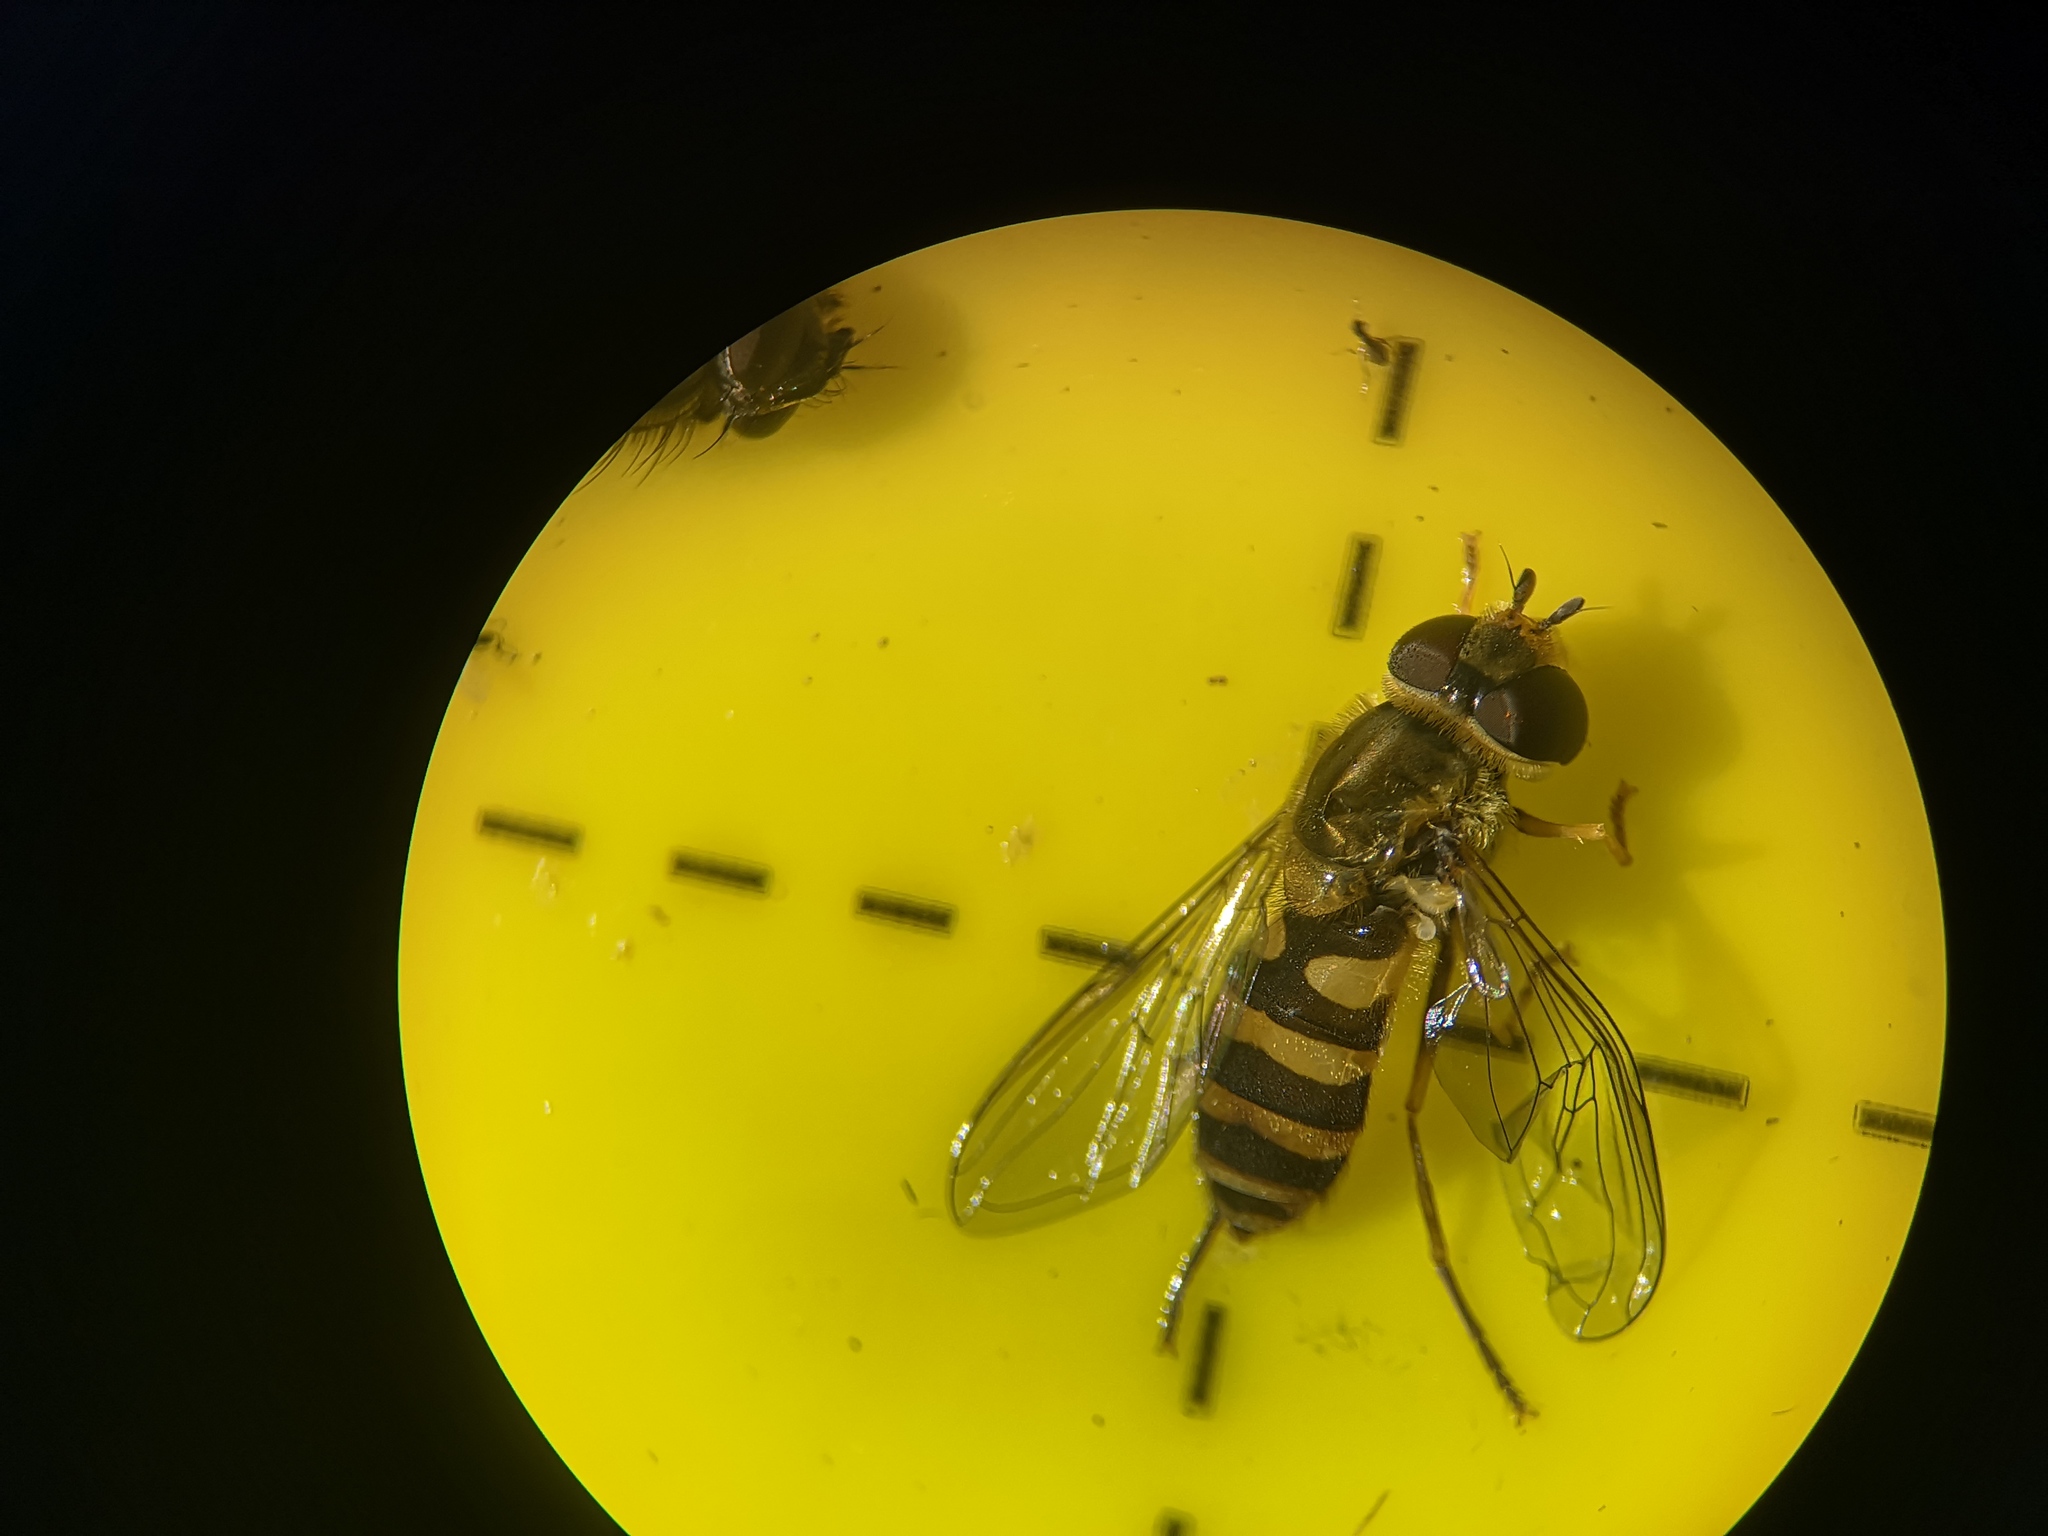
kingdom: Animalia
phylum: Arthropoda
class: Insecta
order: Diptera
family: Syrphidae
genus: Syrphus
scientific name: Syrphus
